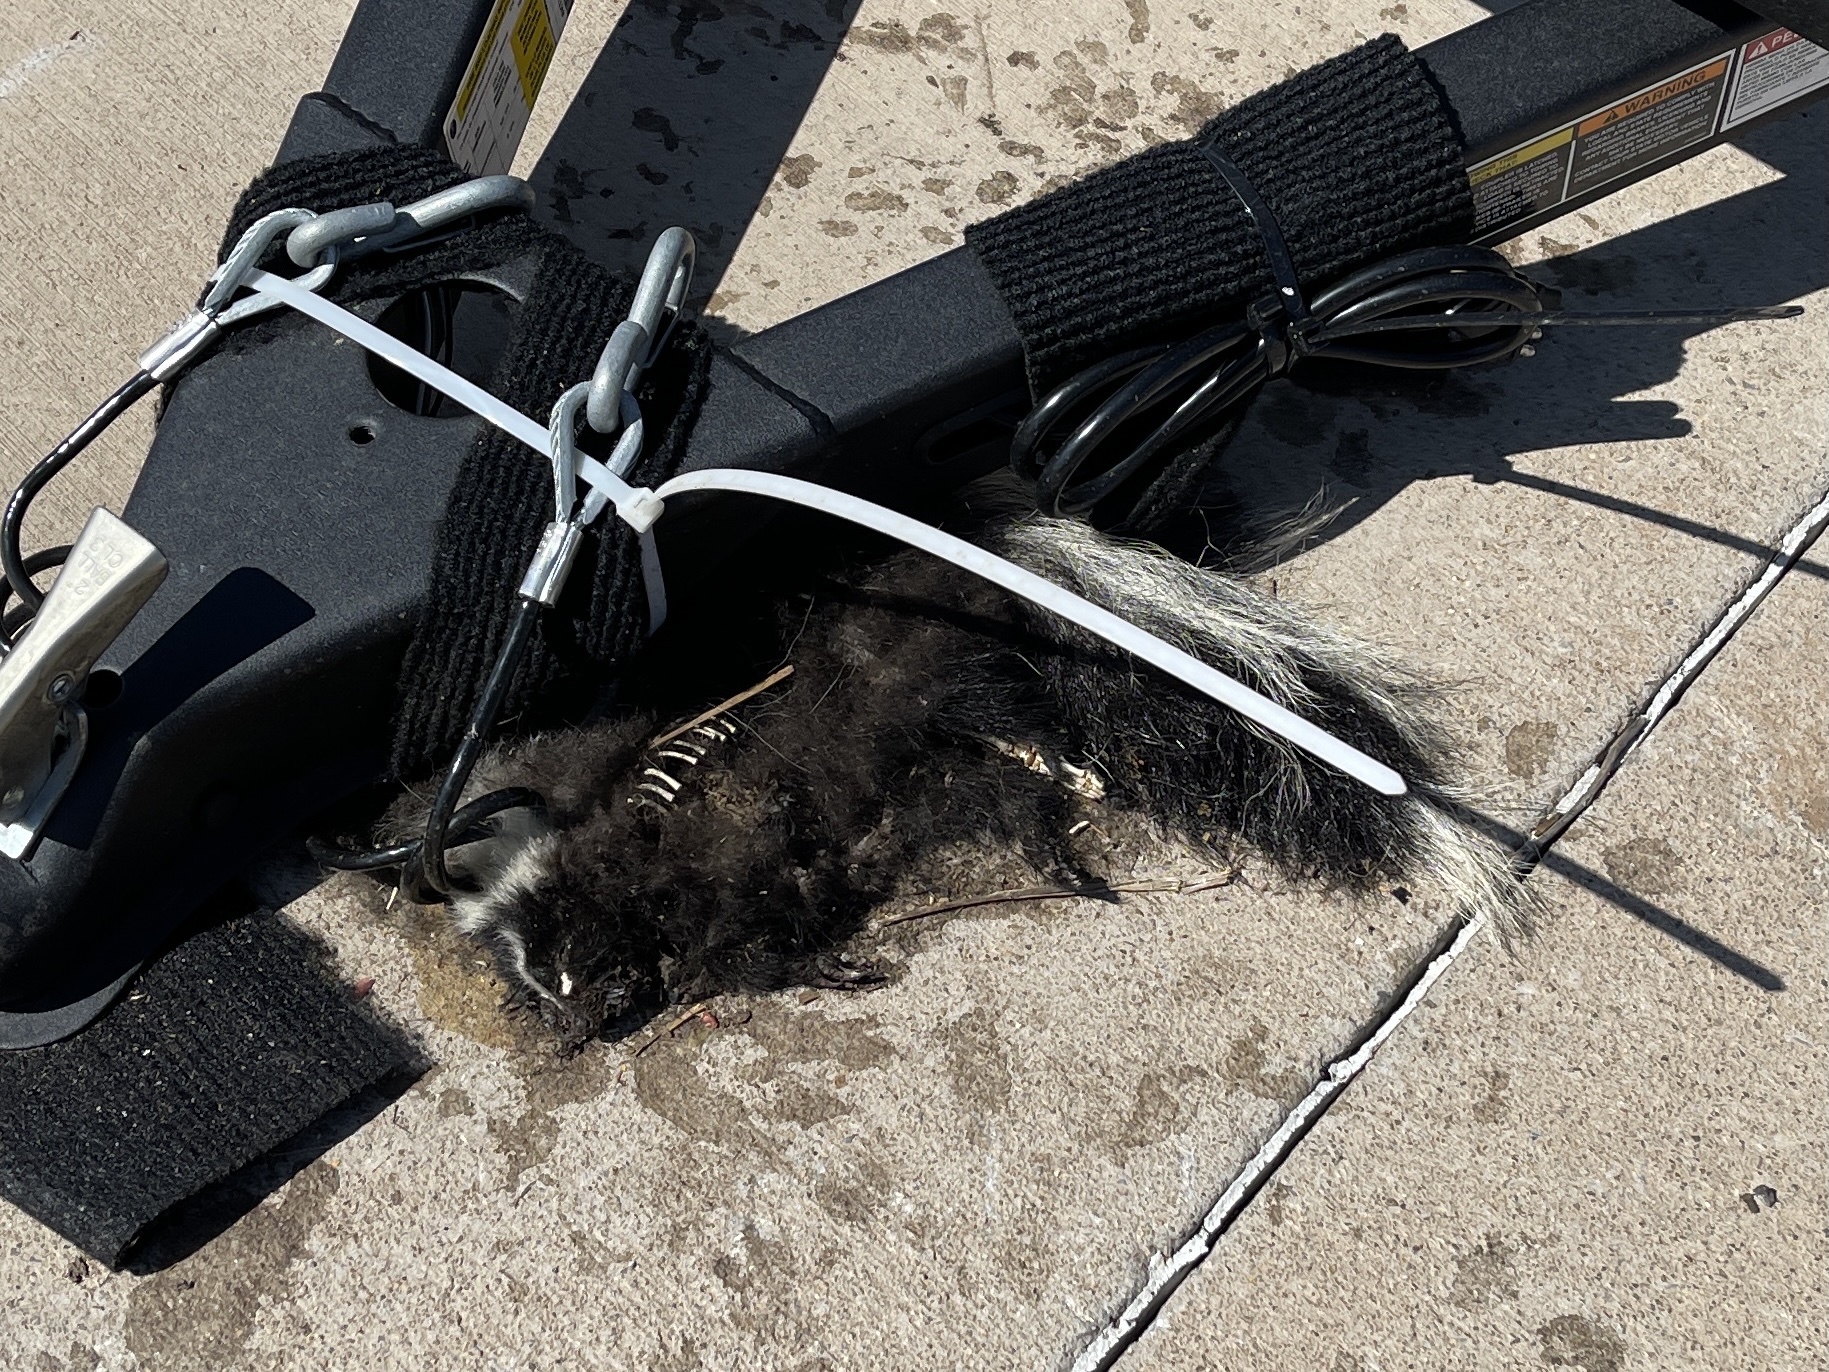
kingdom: Animalia
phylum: Chordata
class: Mammalia
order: Carnivora
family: Mephitidae
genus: Mephitis
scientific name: Mephitis mephitis
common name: Striped skunk
